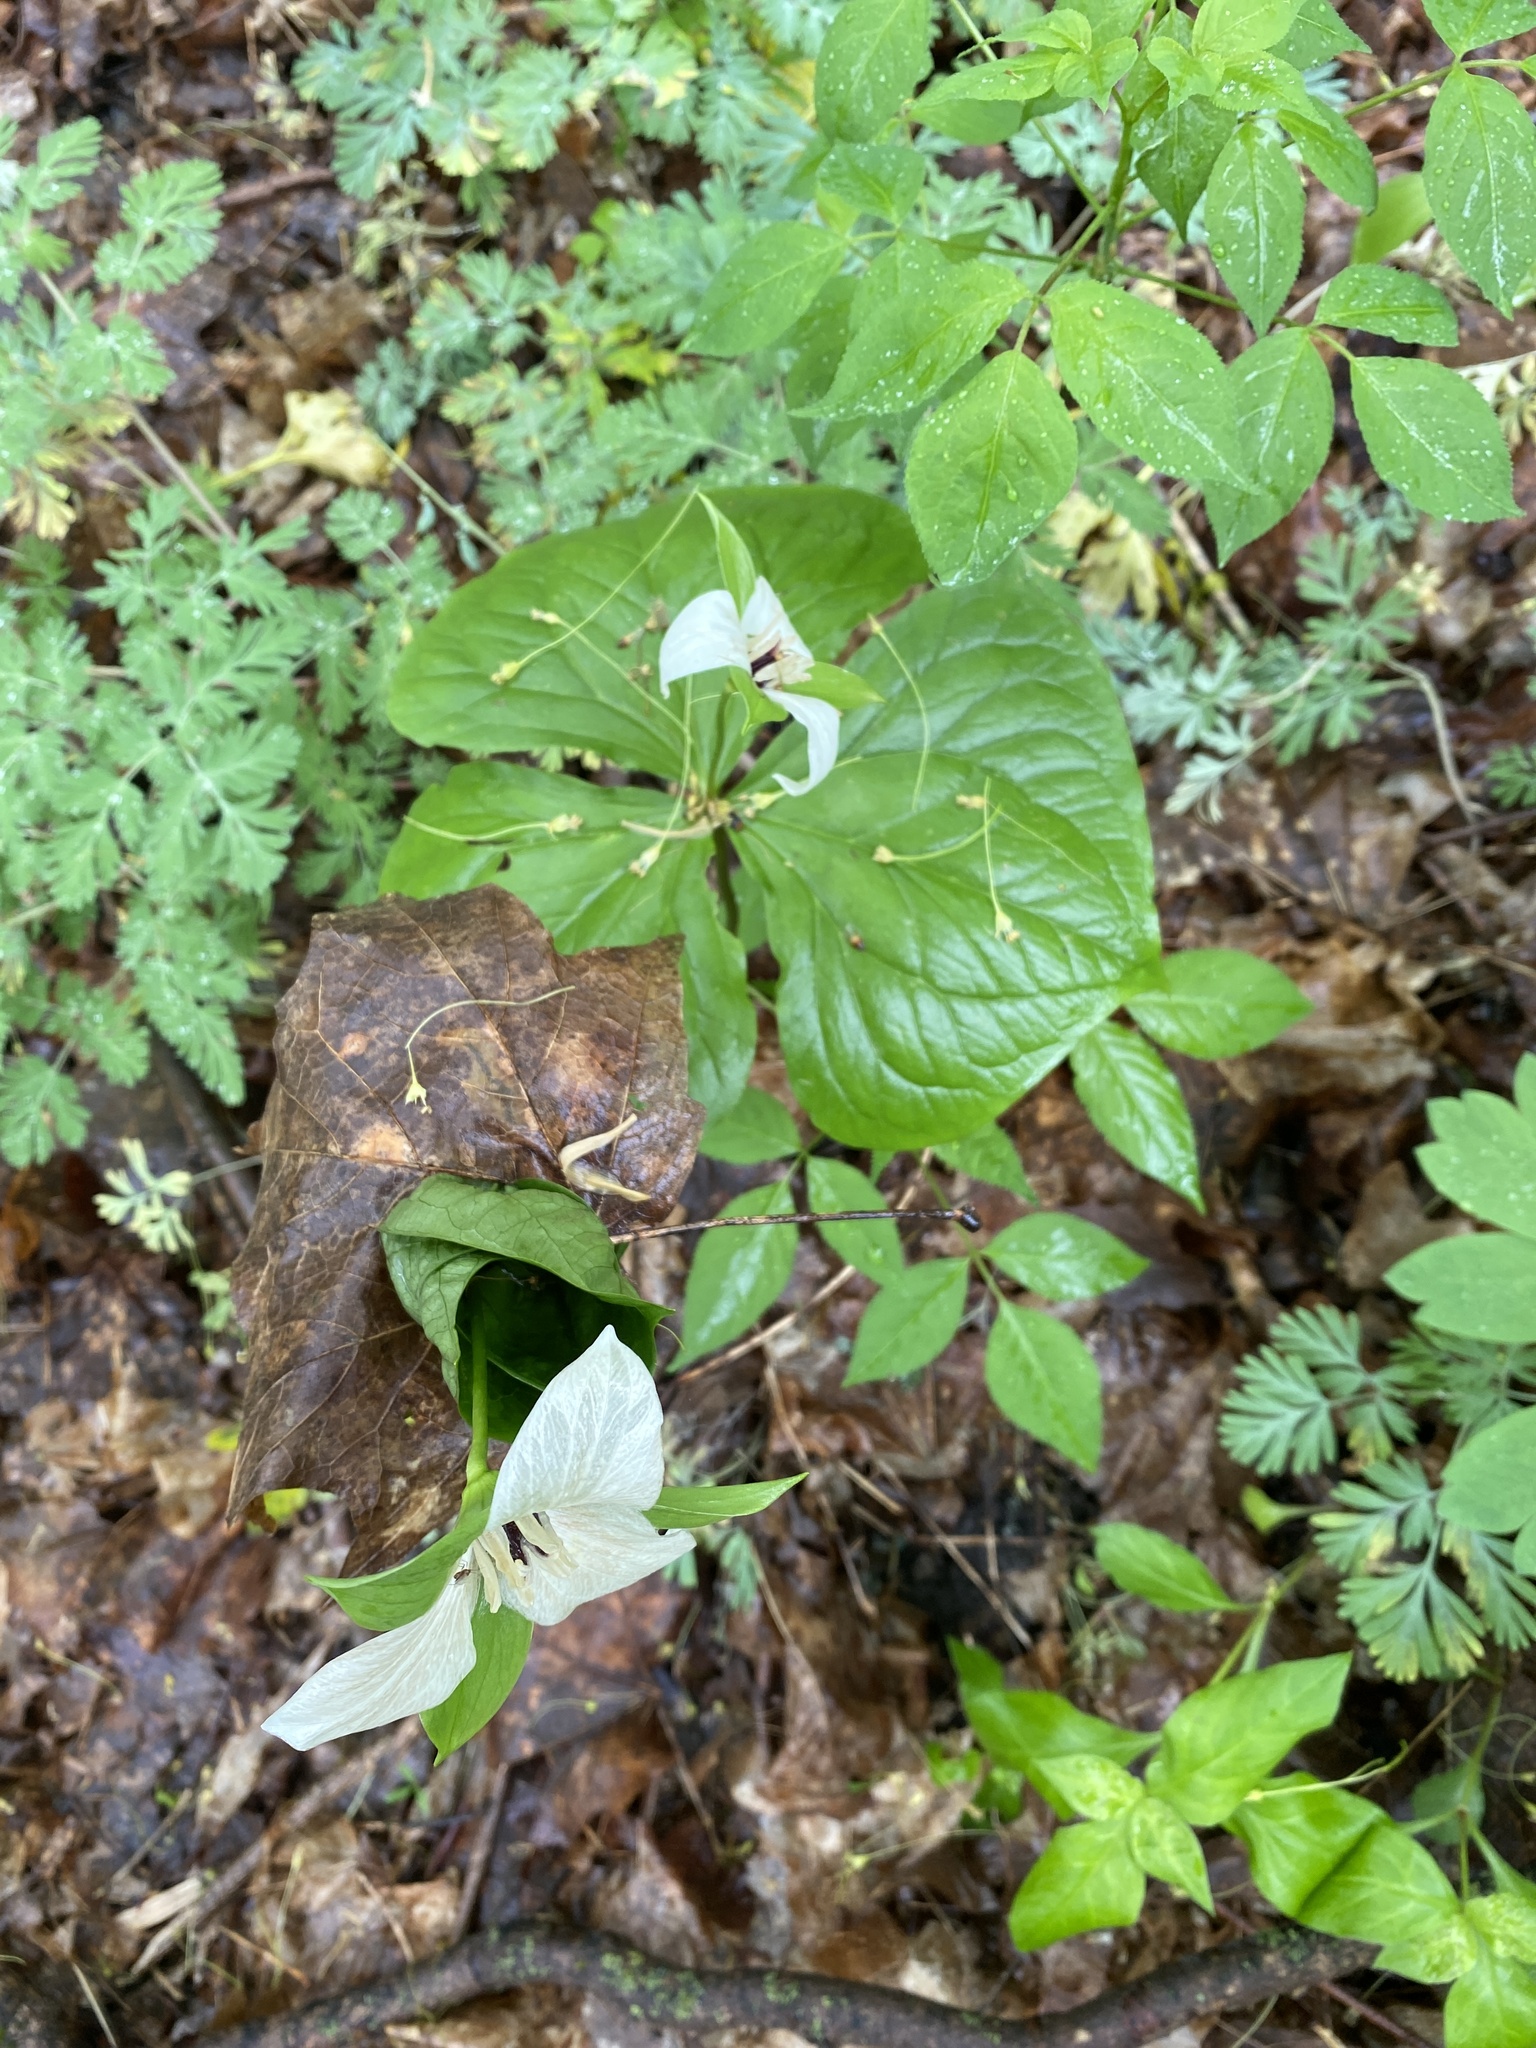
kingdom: Plantae
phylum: Tracheophyta
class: Liliopsida
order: Liliales
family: Melanthiaceae
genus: Trillium
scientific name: Trillium erectum
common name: Purple trillium
